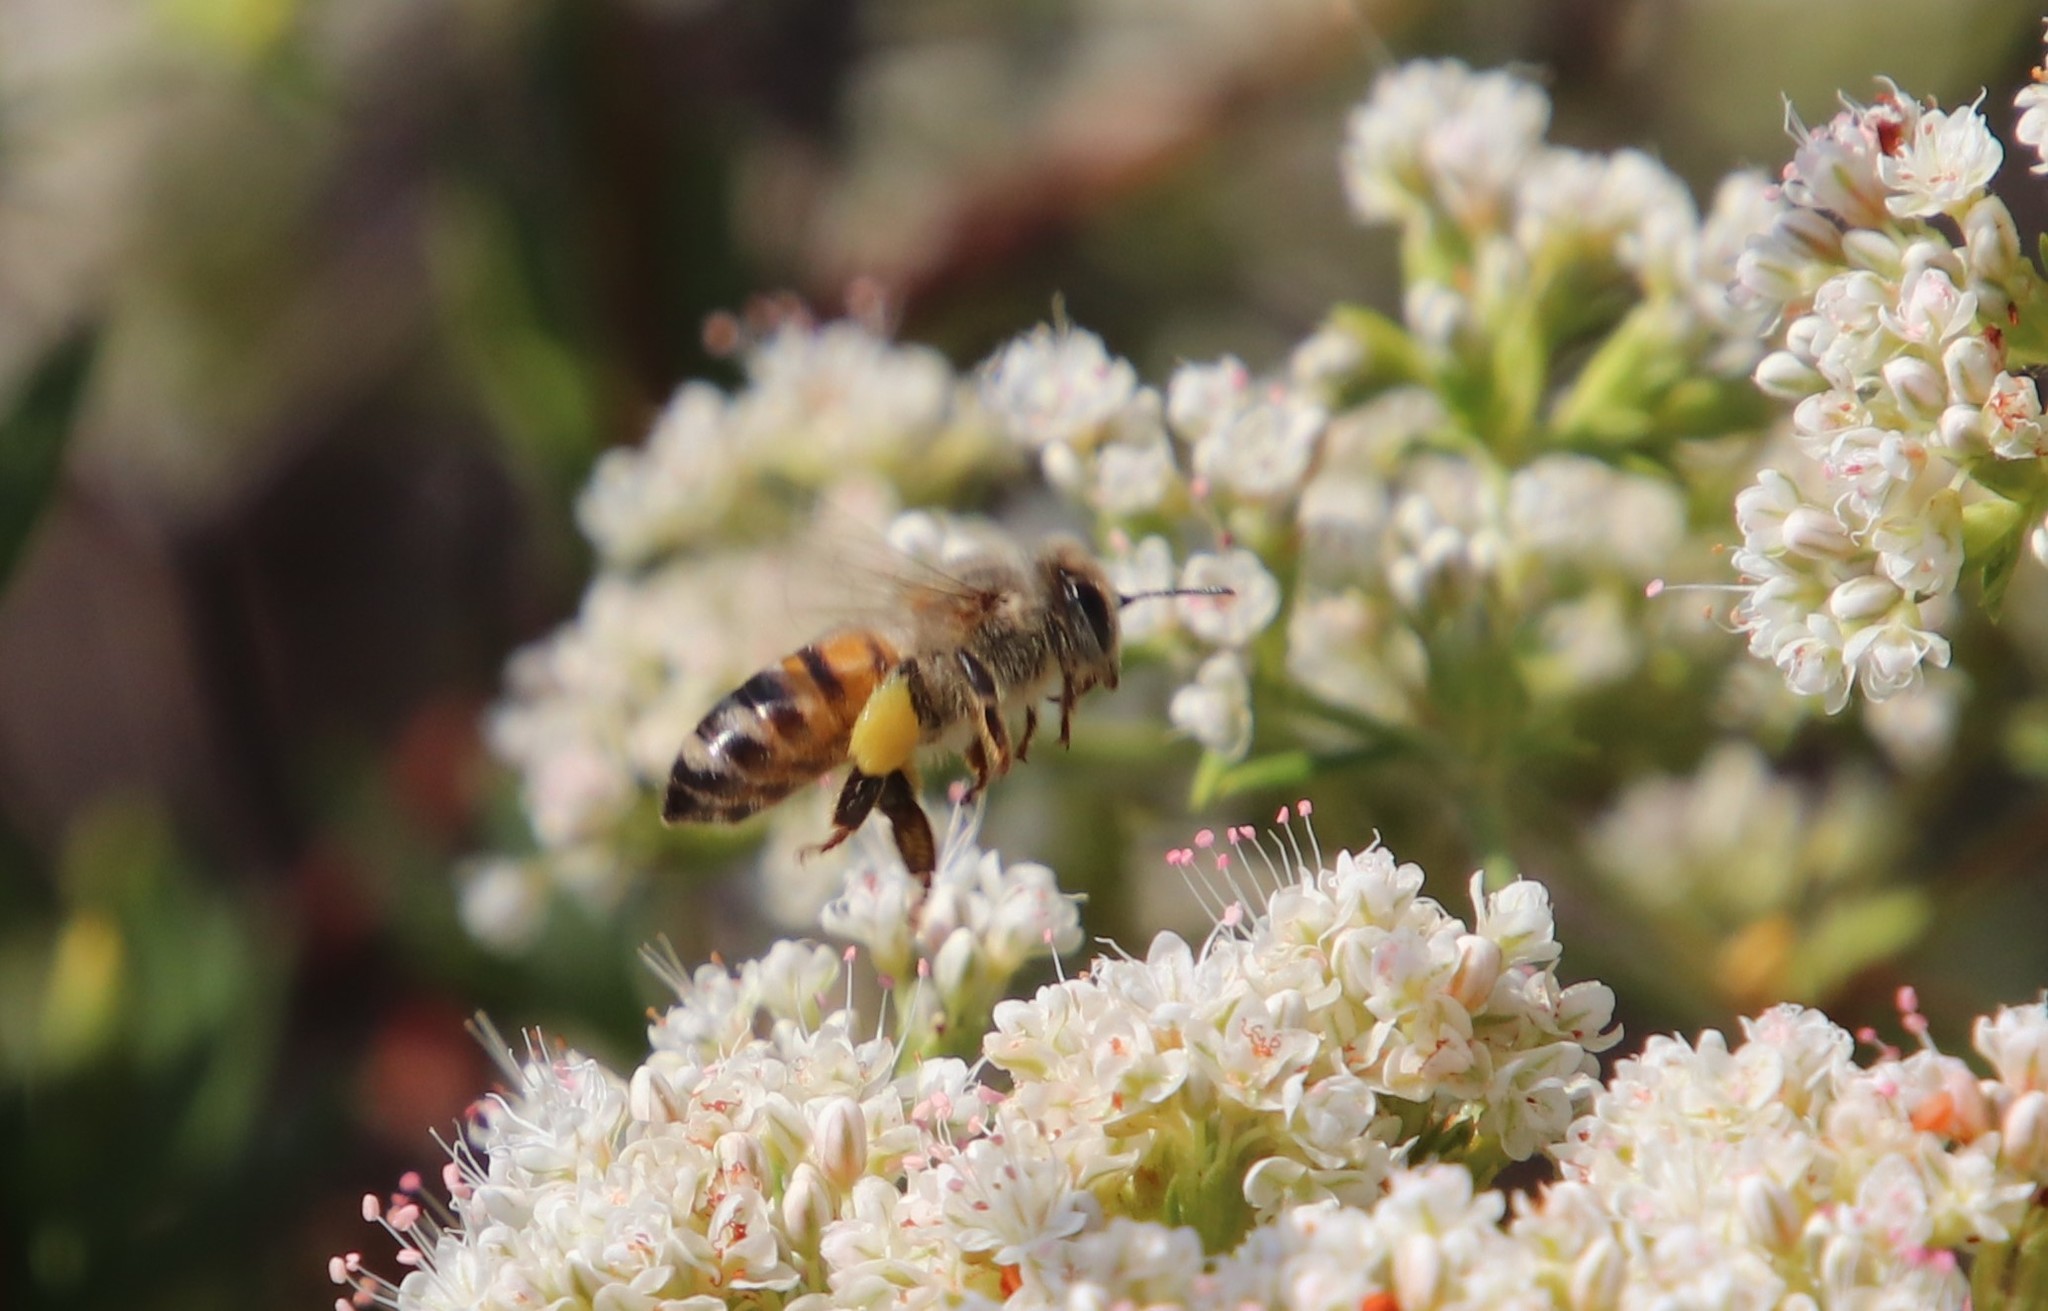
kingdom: Animalia
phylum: Arthropoda
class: Insecta
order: Hymenoptera
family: Apidae
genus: Apis
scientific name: Apis mellifera
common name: Honey bee
